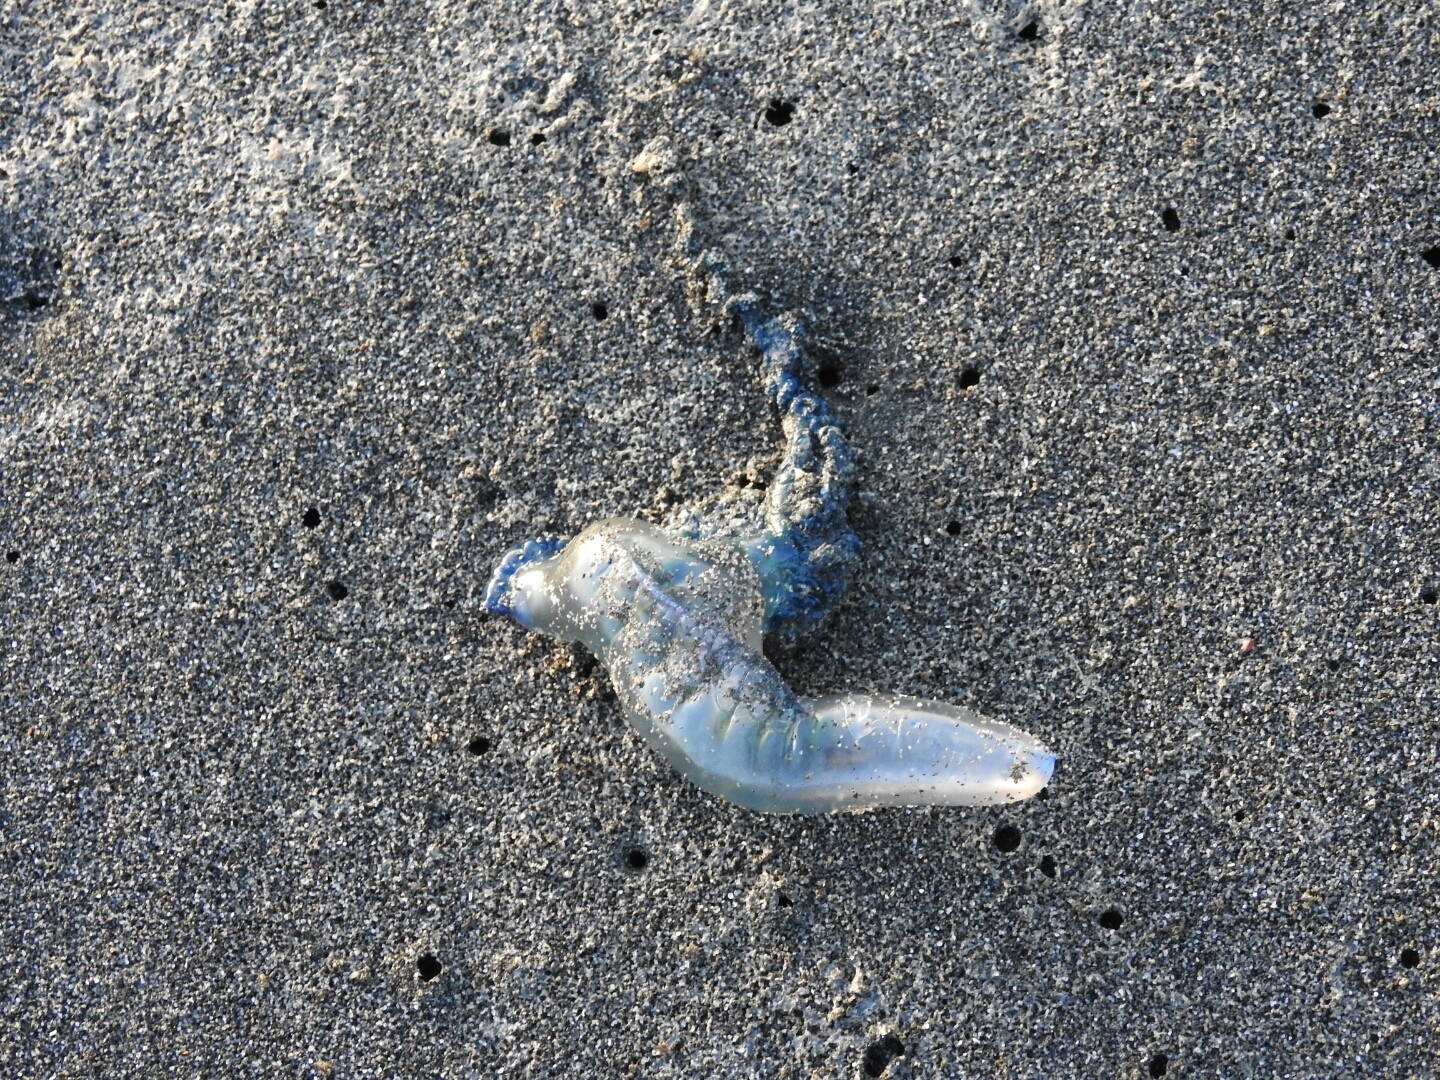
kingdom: Animalia
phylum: Cnidaria
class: Hydrozoa
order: Siphonophorae
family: Physaliidae
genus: Physalia
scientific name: Physalia physalis
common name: Portuguese man-of-war
